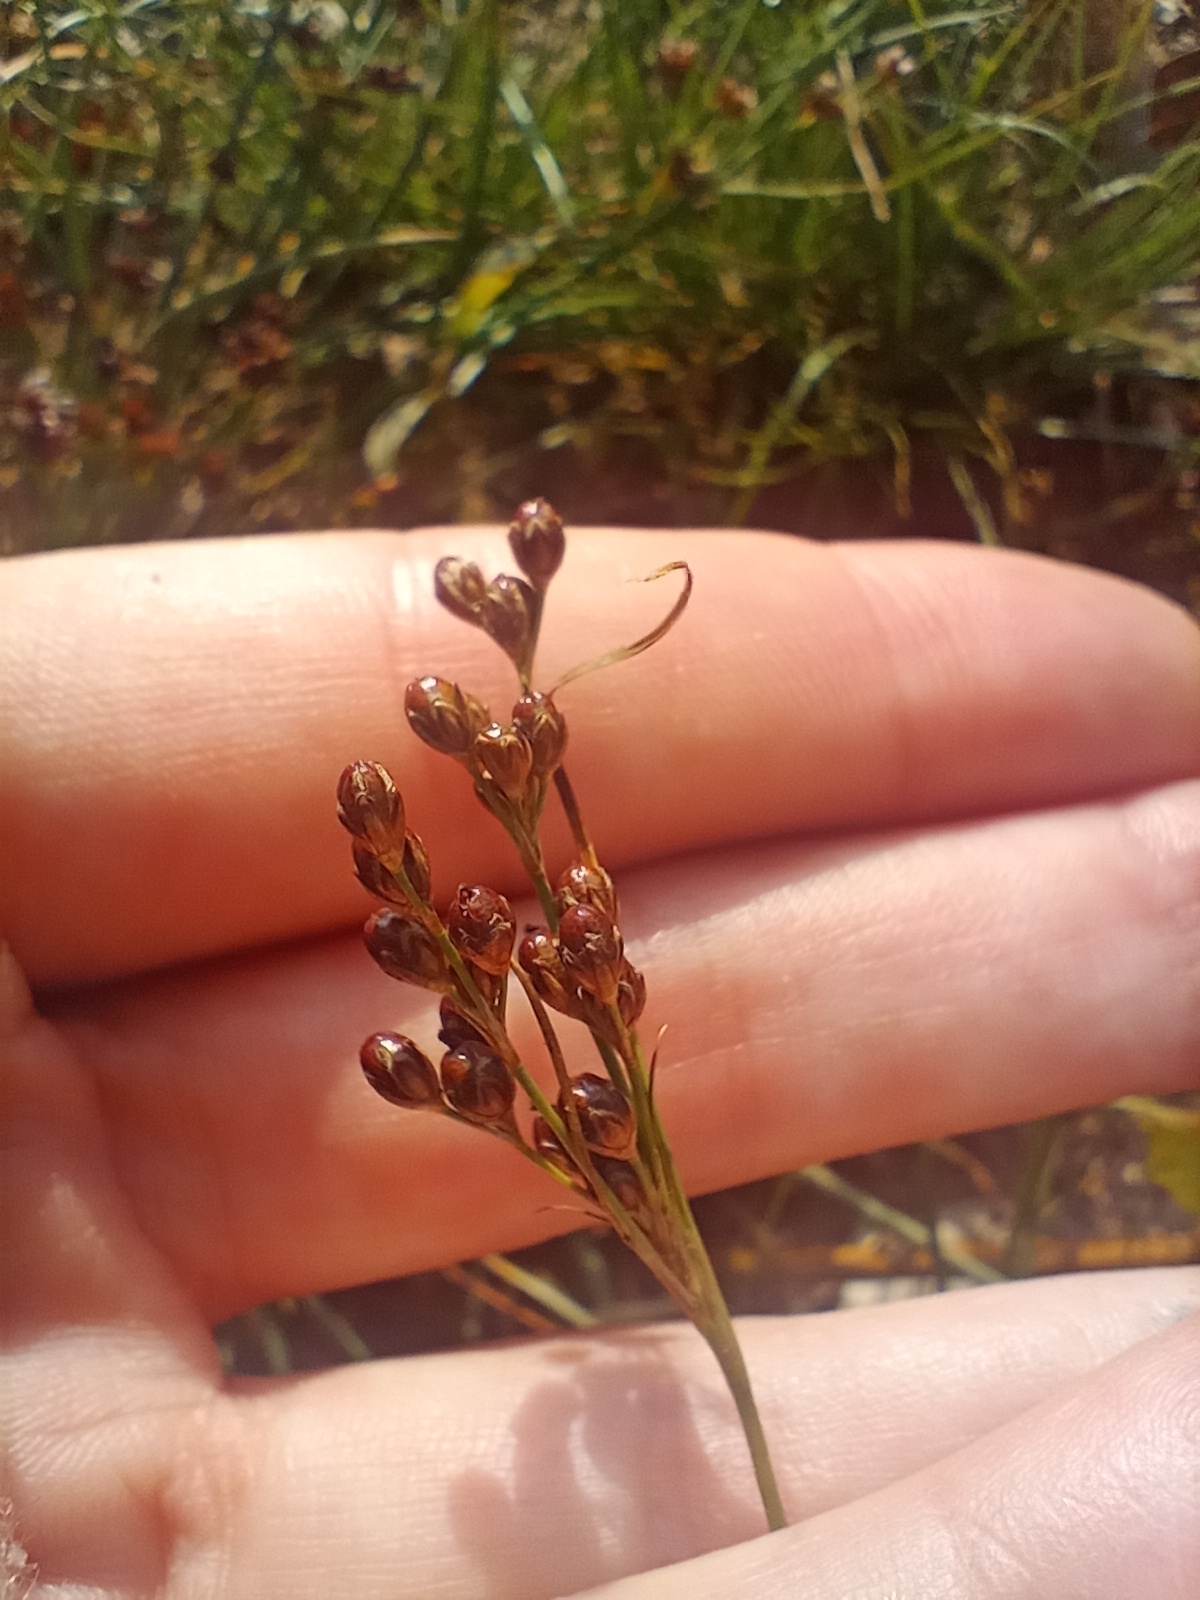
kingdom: Plantae
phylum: Tracheophyta
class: Liliopsida
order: Poales
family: Juncaceae
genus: Juncus
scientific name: Juncus compressus
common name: Round-fruited rush
